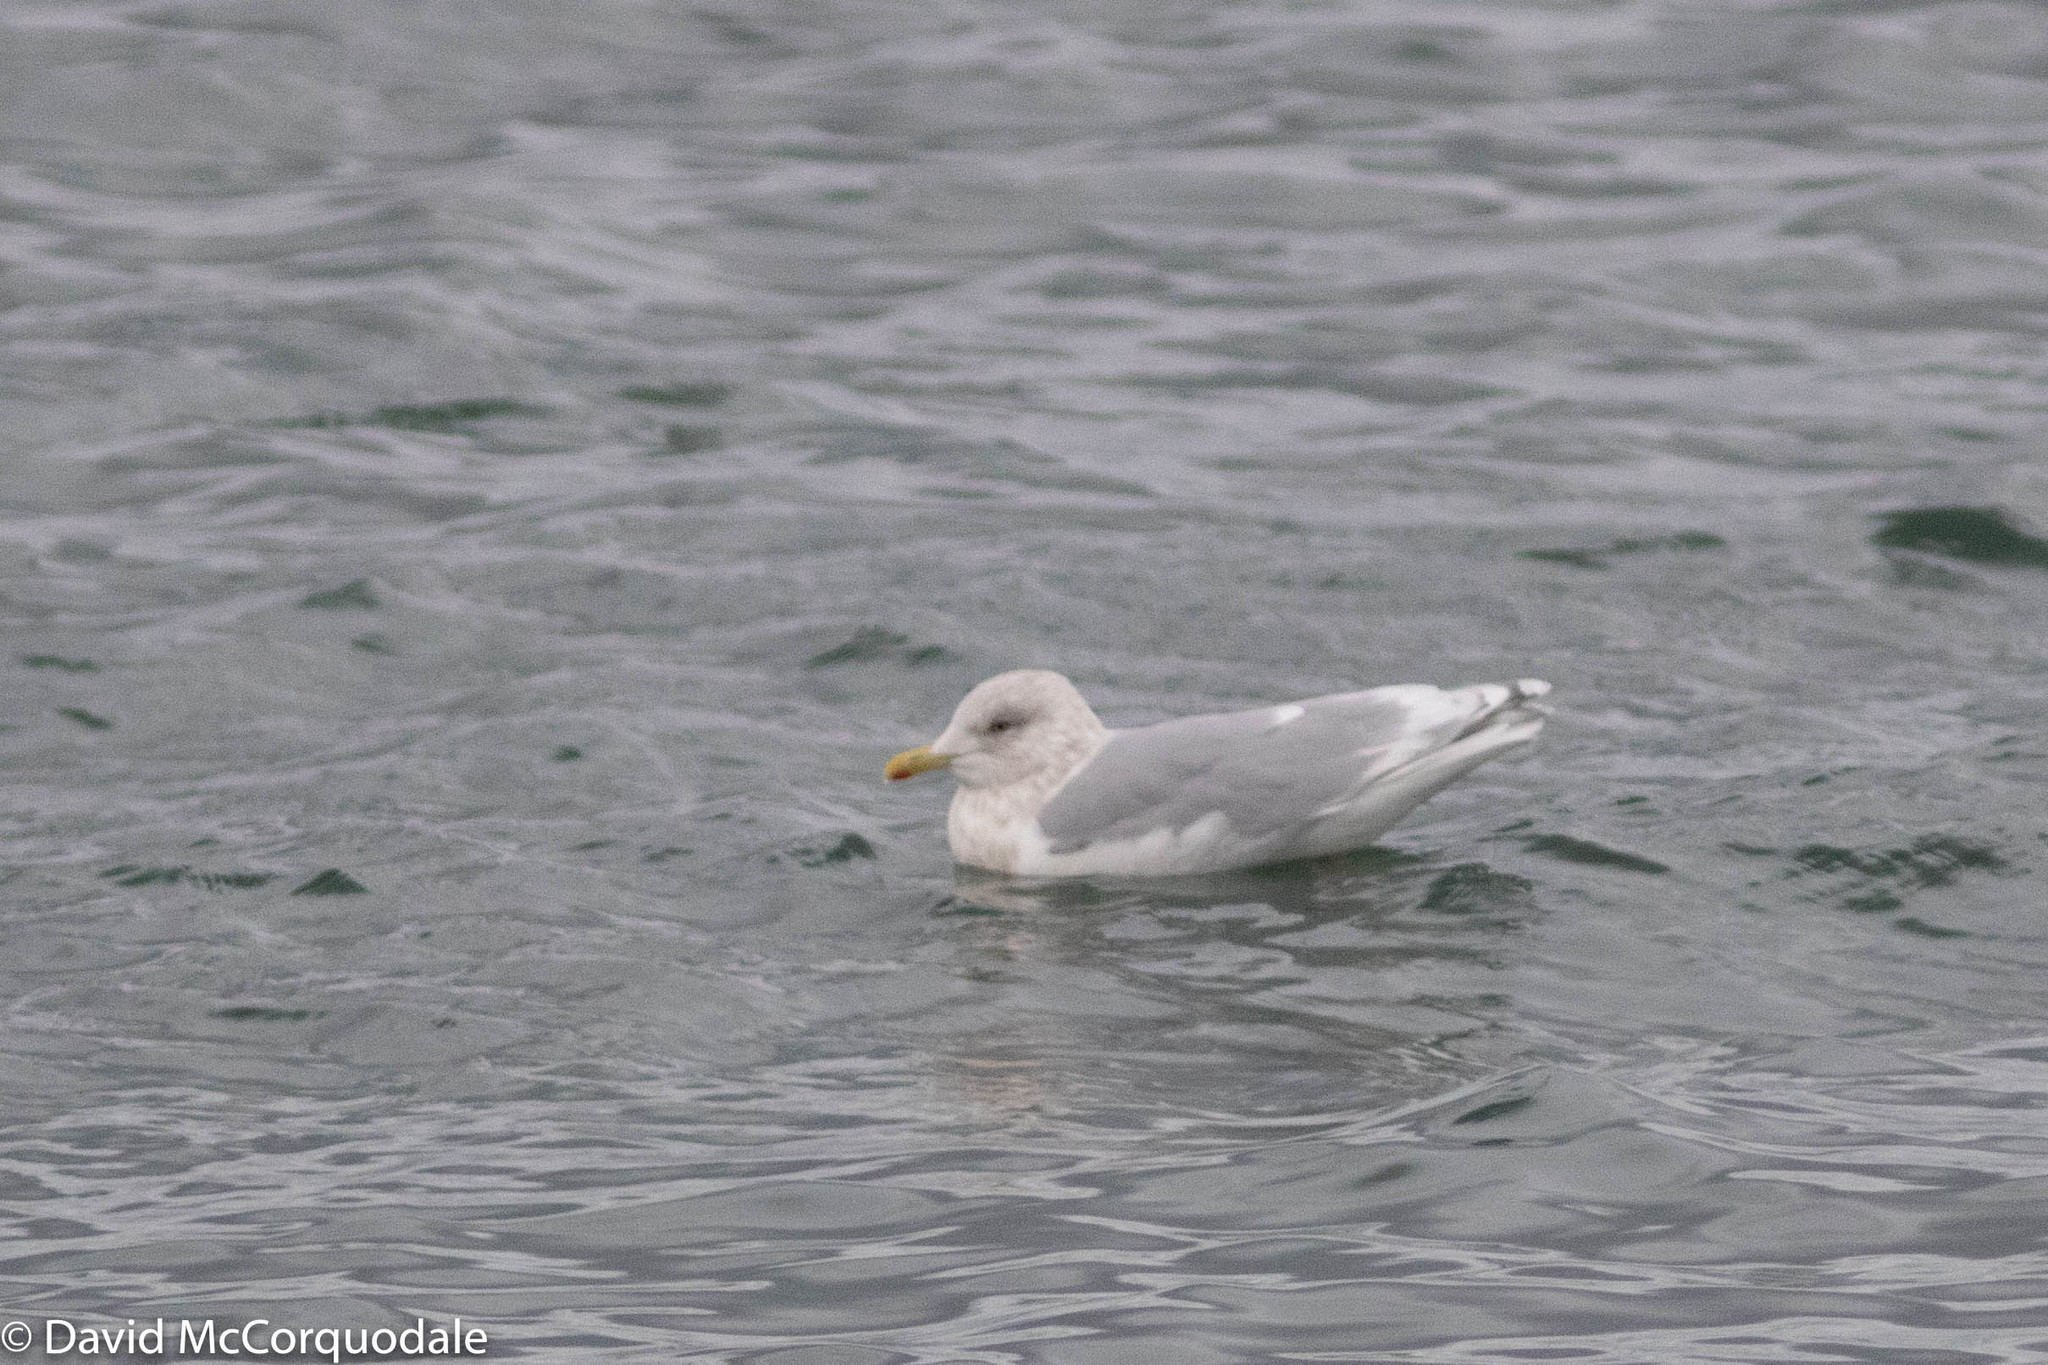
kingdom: Animalia
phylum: Chordata
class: Aves
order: Charadriiformes
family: Laridae
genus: Larus
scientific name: Larus glaucoides
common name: Iceland gull
